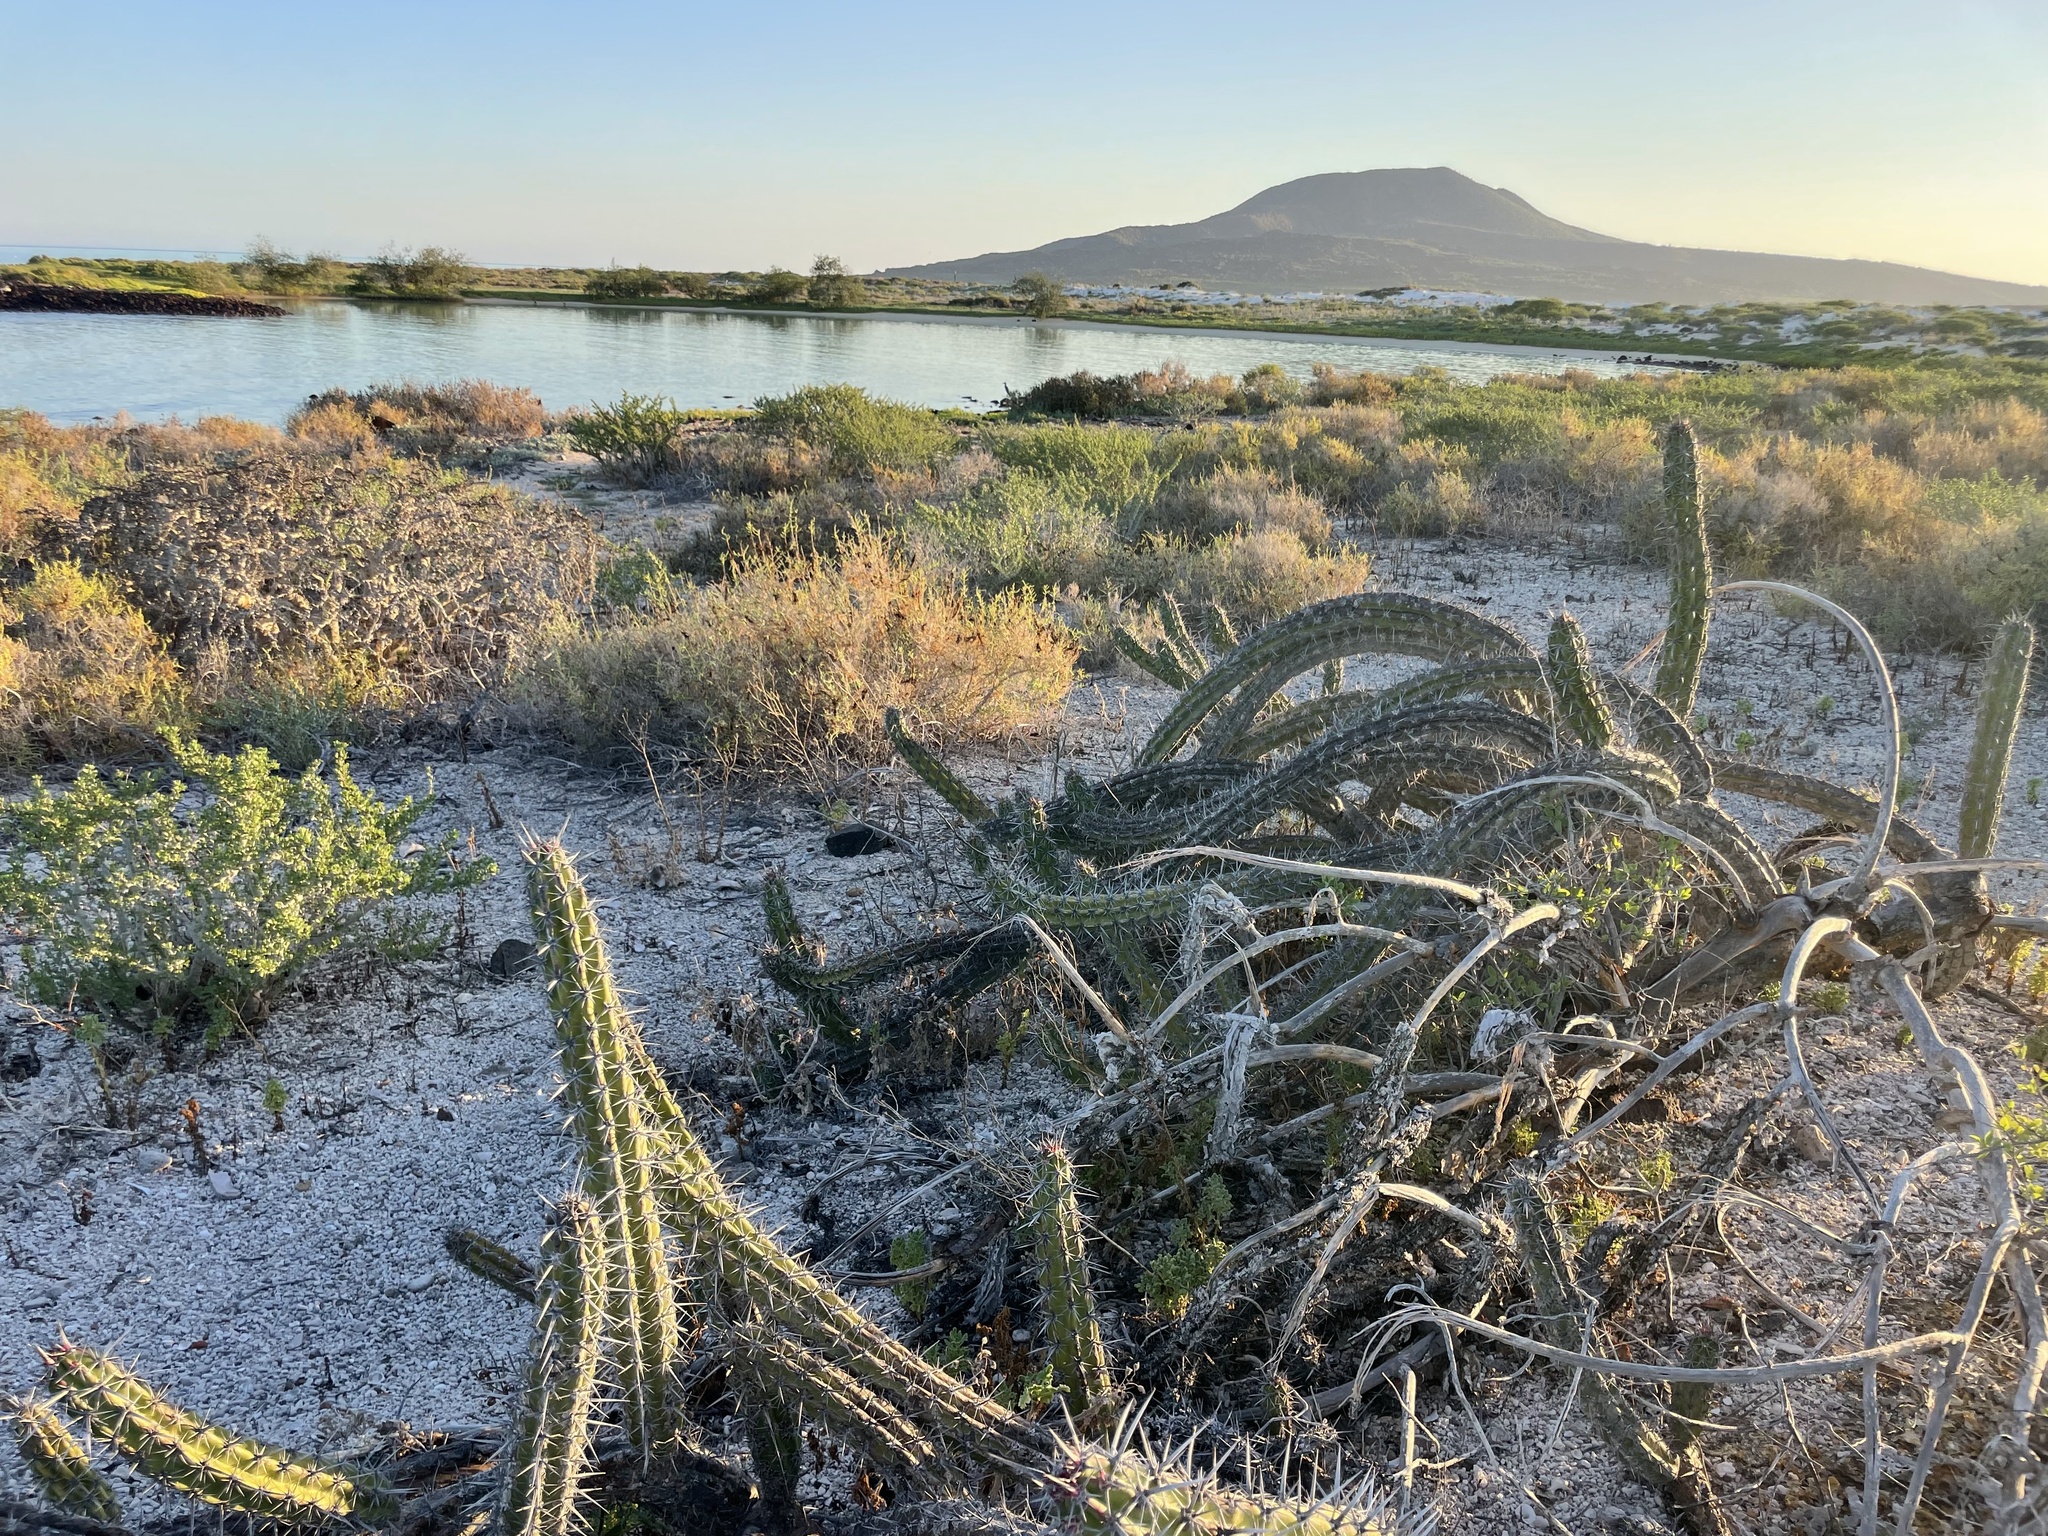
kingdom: Plantae
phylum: Tracheophyta
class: Magnoliopsida
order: Caryophyllales
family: Cactaceae
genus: Stenocereus
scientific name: Stenocereus gummosus
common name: Dagger cactus
